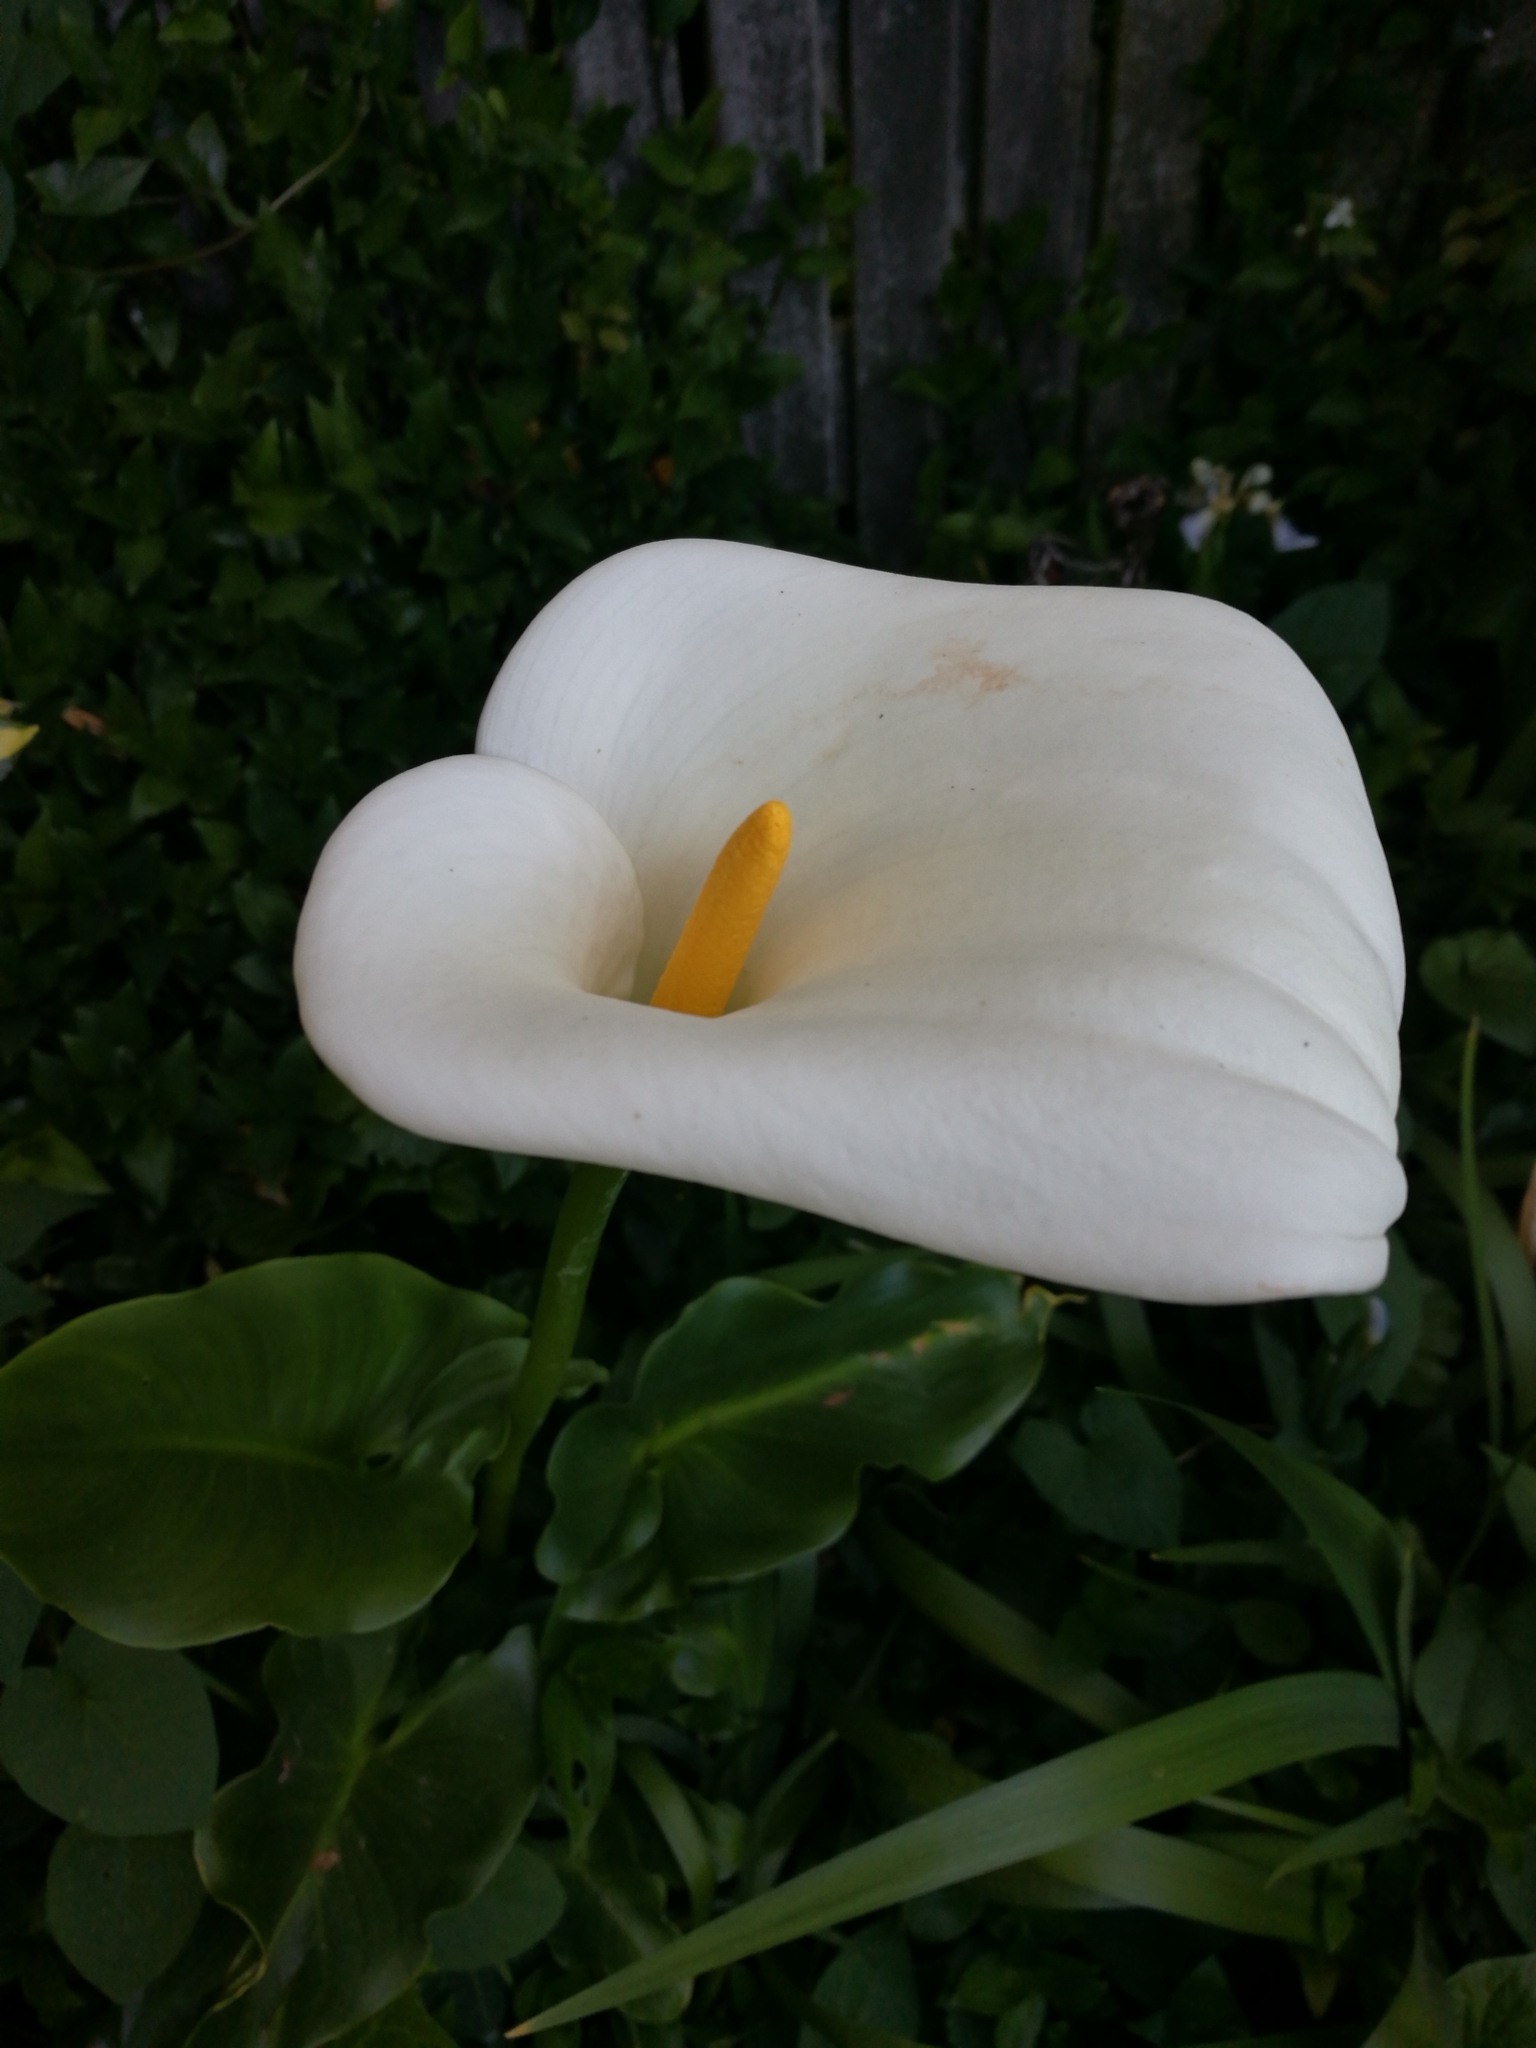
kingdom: Plantae
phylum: Tracheophyta
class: Liliopsida
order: Alismatales
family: Araceae
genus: Zantedeschia
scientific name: Zantedeschia aethiopica
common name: Altar-lily
